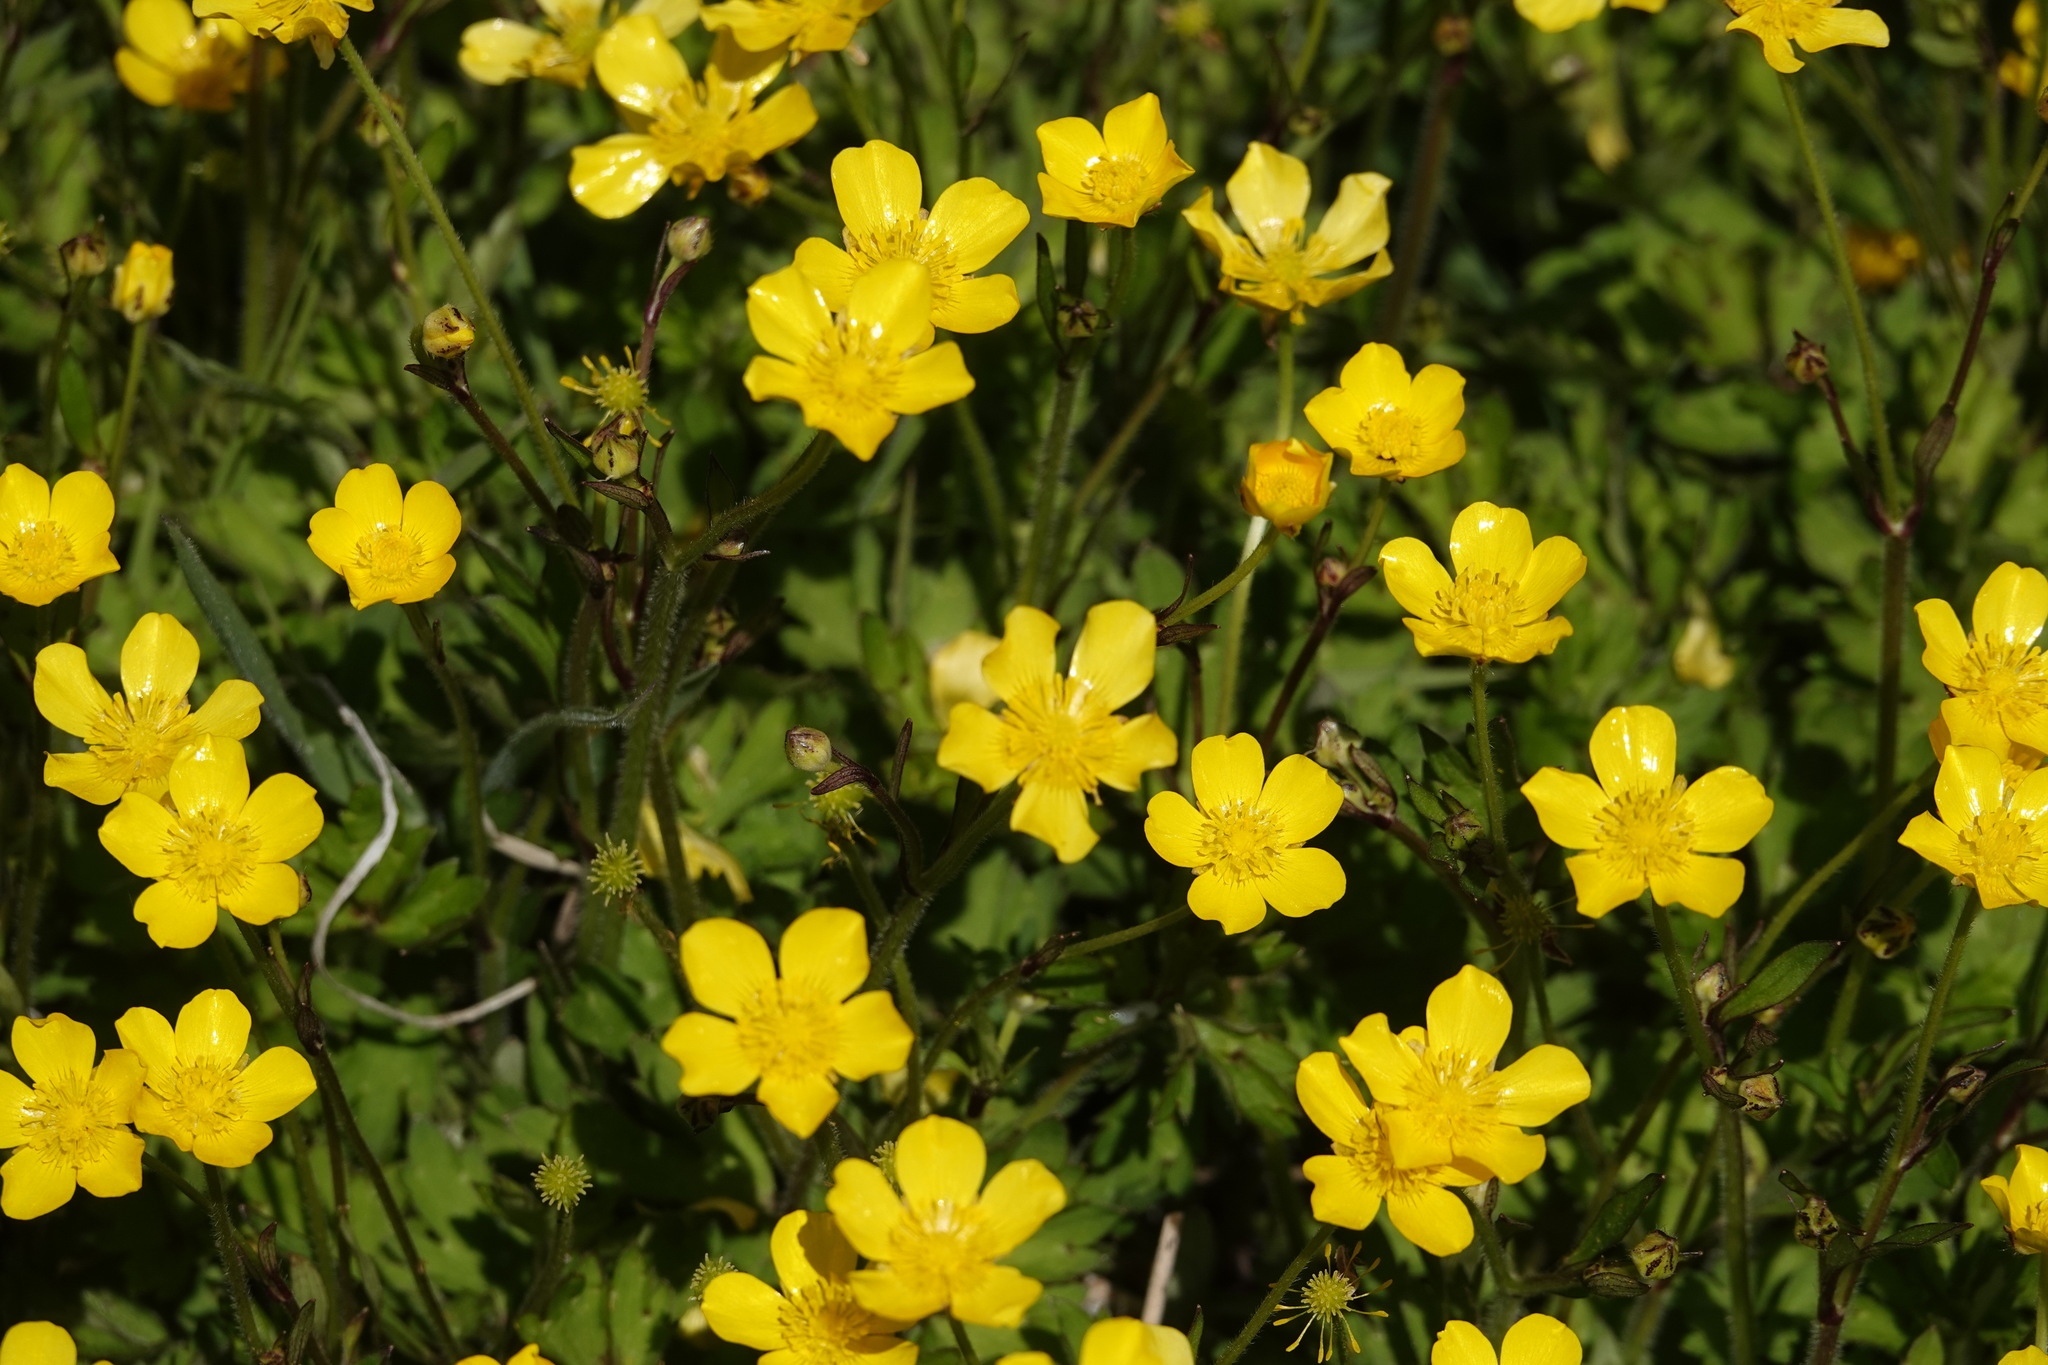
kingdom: Plantae
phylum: Tracheophyta
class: Magnoliopsida
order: Ranunculales
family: Ranunculaceae
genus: Ranunculus
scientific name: Ranunculus repens
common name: Creeping buttercup
